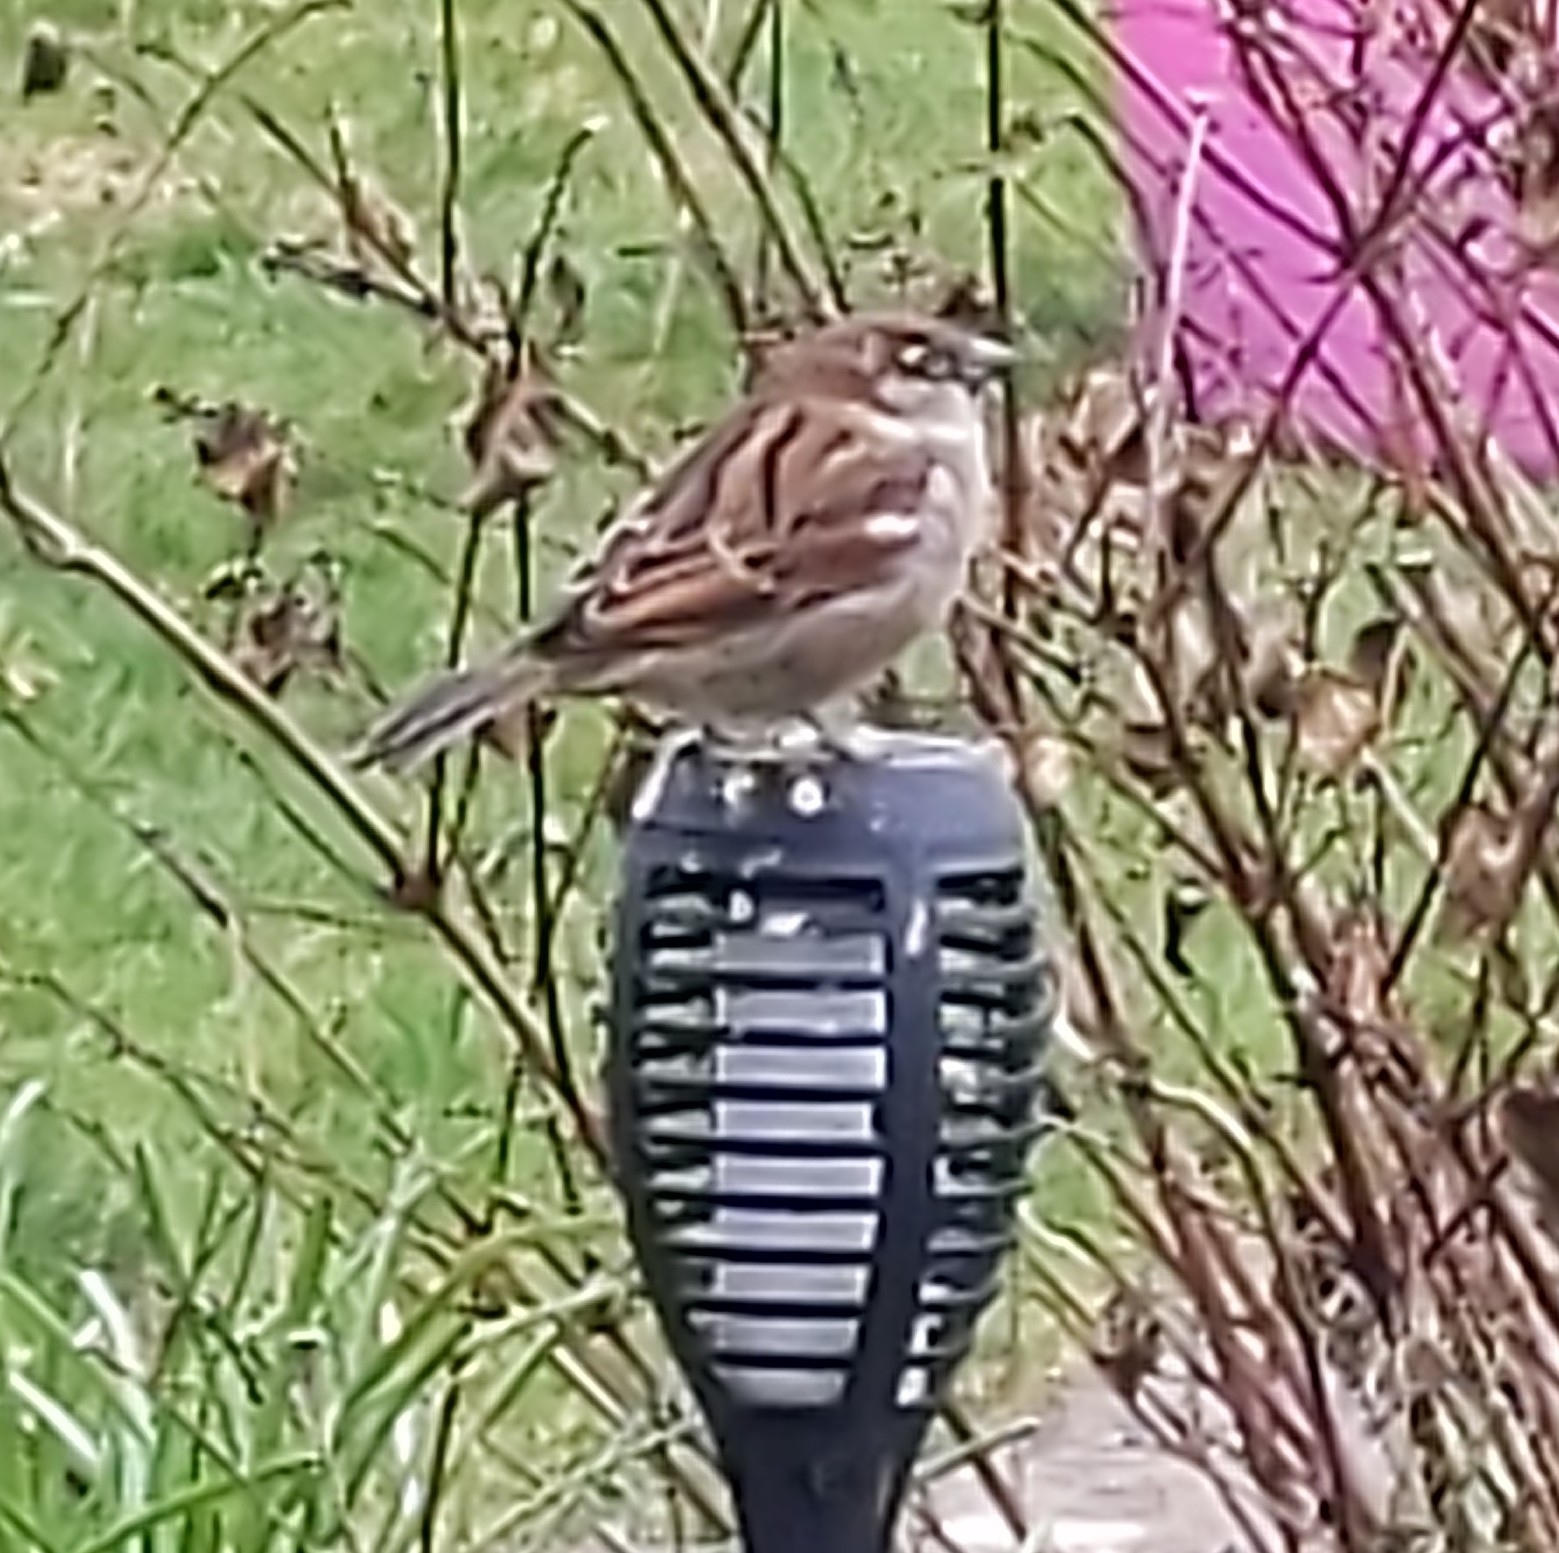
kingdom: Animalia
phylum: Chordata
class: Aves
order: Passeriformes
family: Passeridae
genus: Passer
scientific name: Passer domesticus
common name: House sparrow
